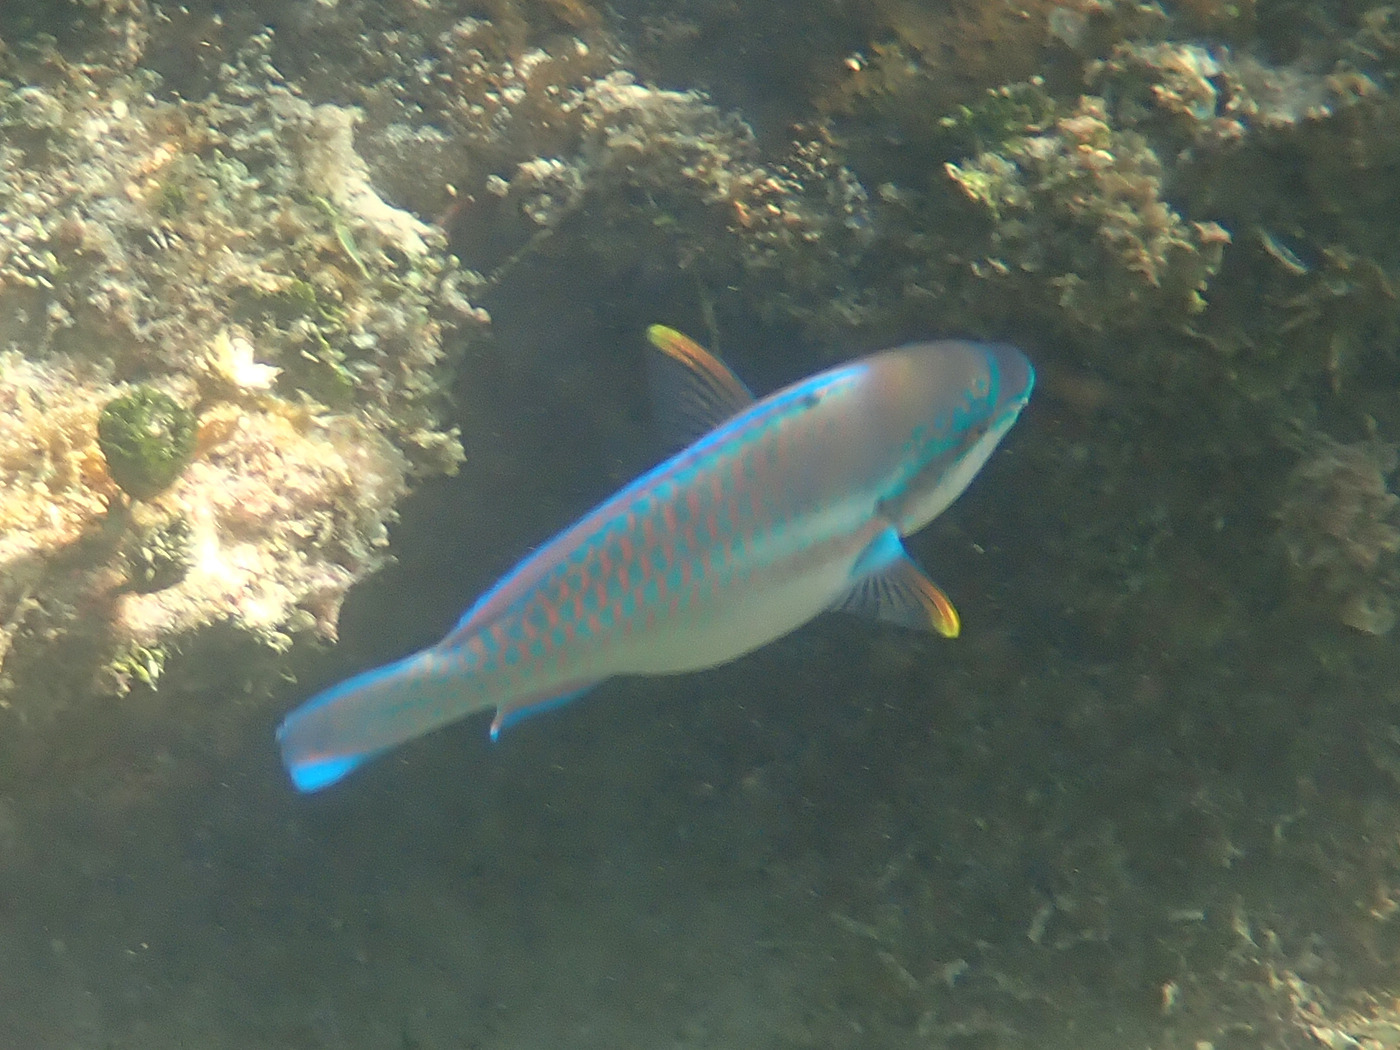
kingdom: Animalia
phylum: Chordata
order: Perciformes
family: Scaridae
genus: Scarus
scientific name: Scarus iseri
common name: Striped parrotfish
